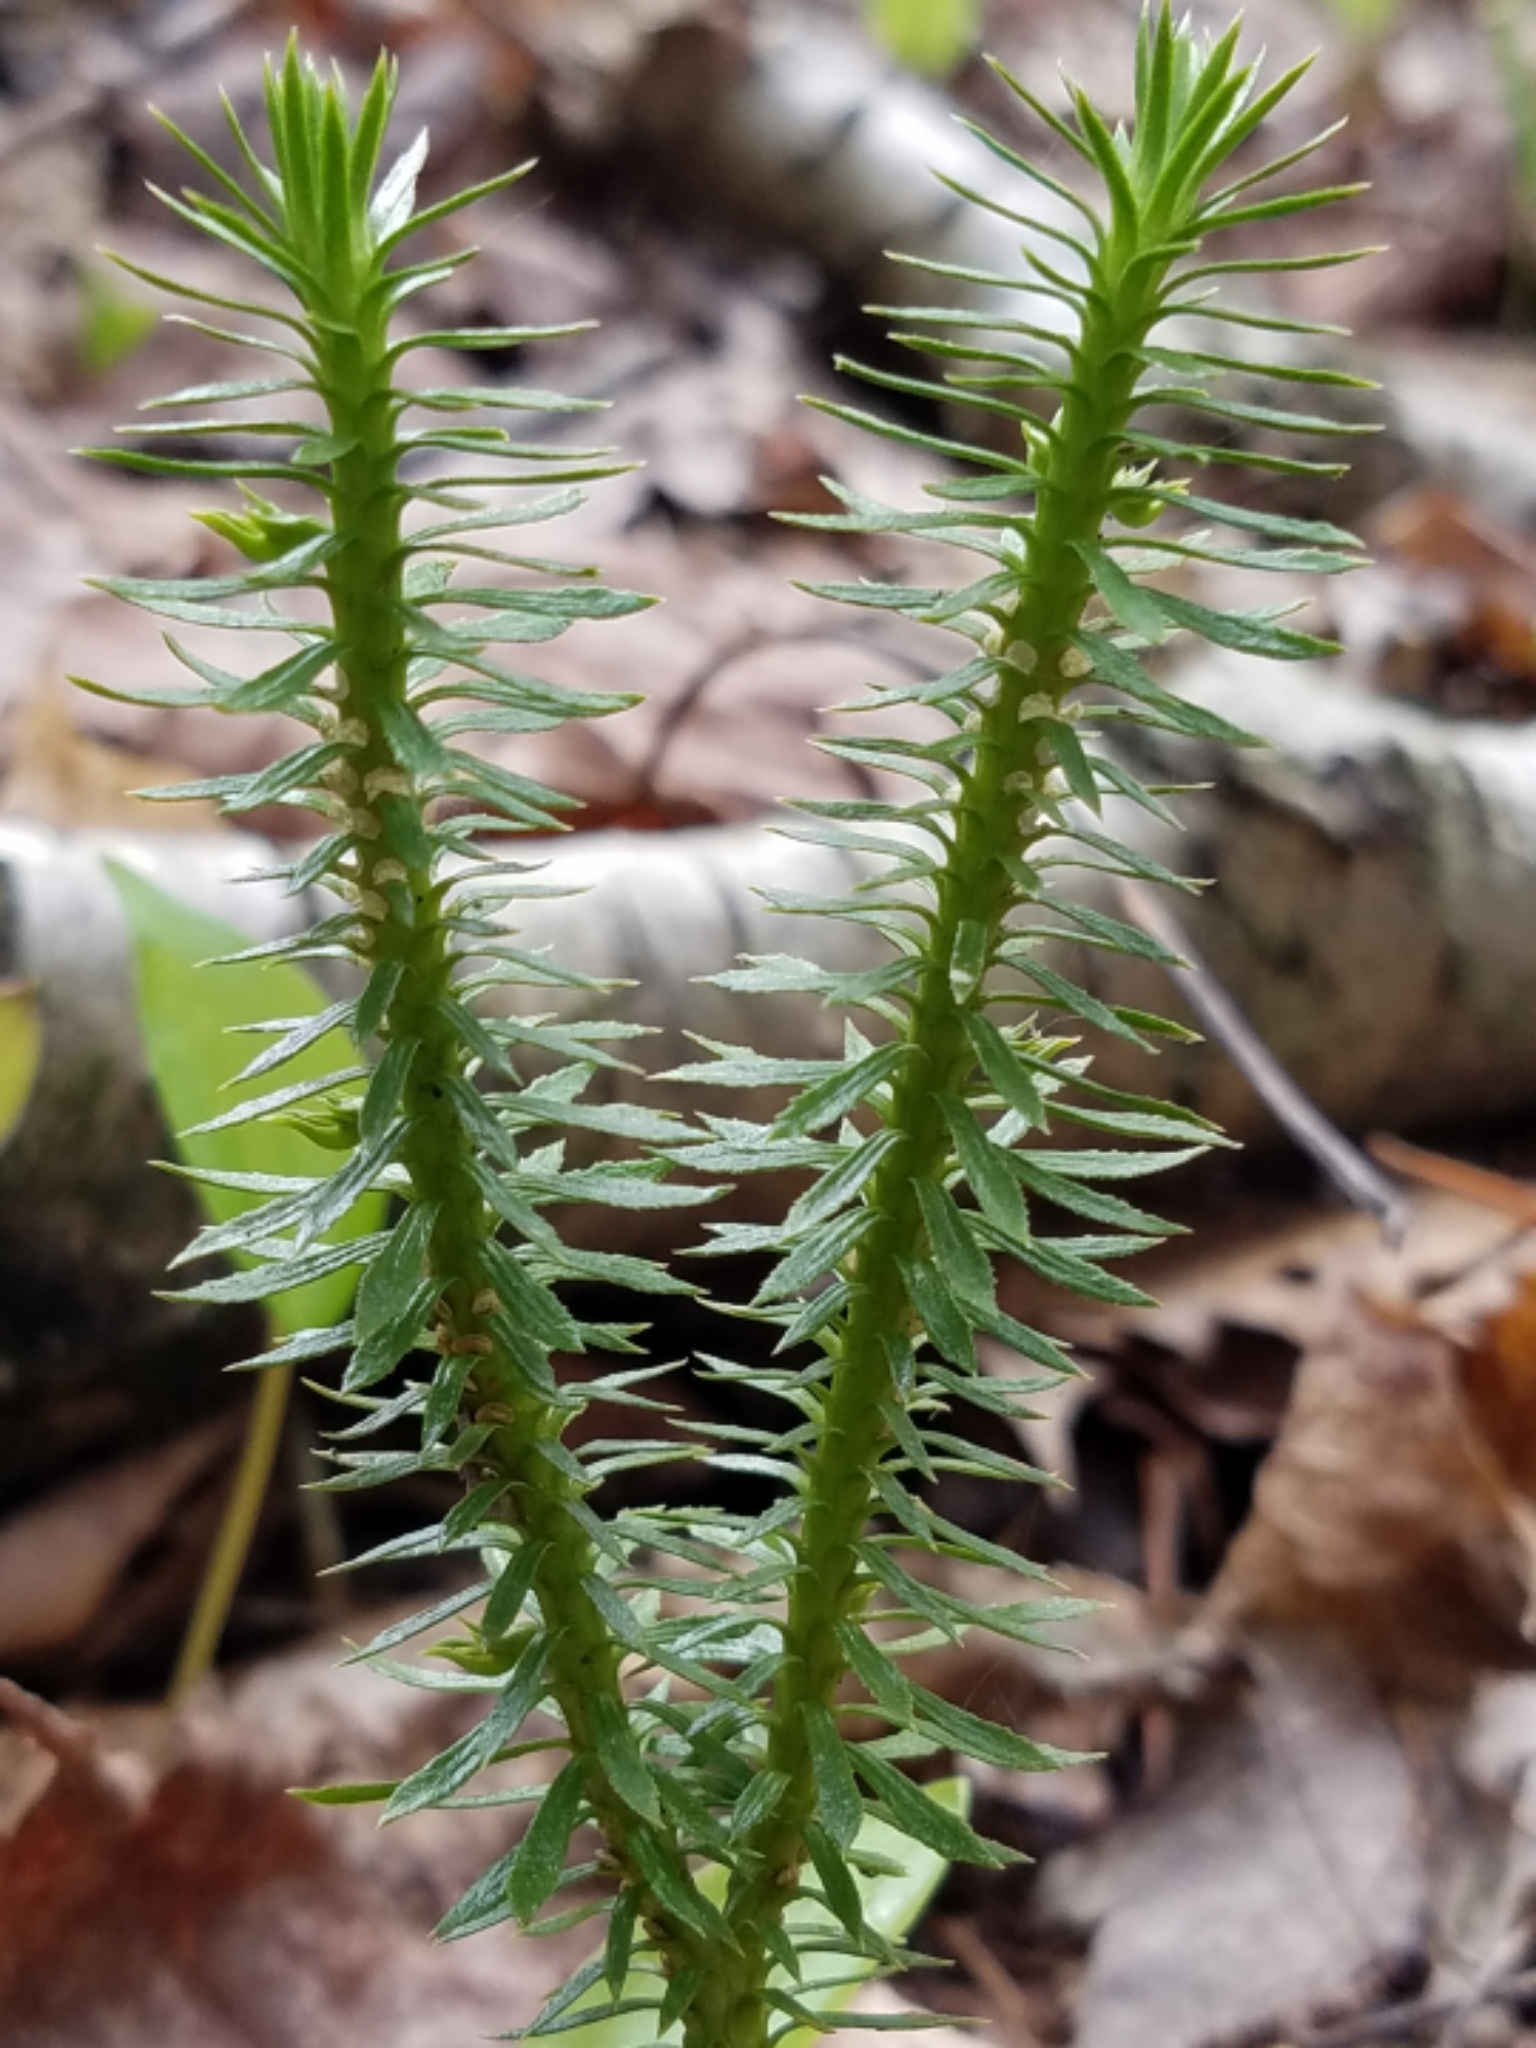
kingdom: Plantae
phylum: Tracheophyta
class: Lycopodiopsida
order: Lycopodiales
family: Lycopodiaceae
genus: Huperzia
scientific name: Huperzia lucidula
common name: Shining clubmoss
